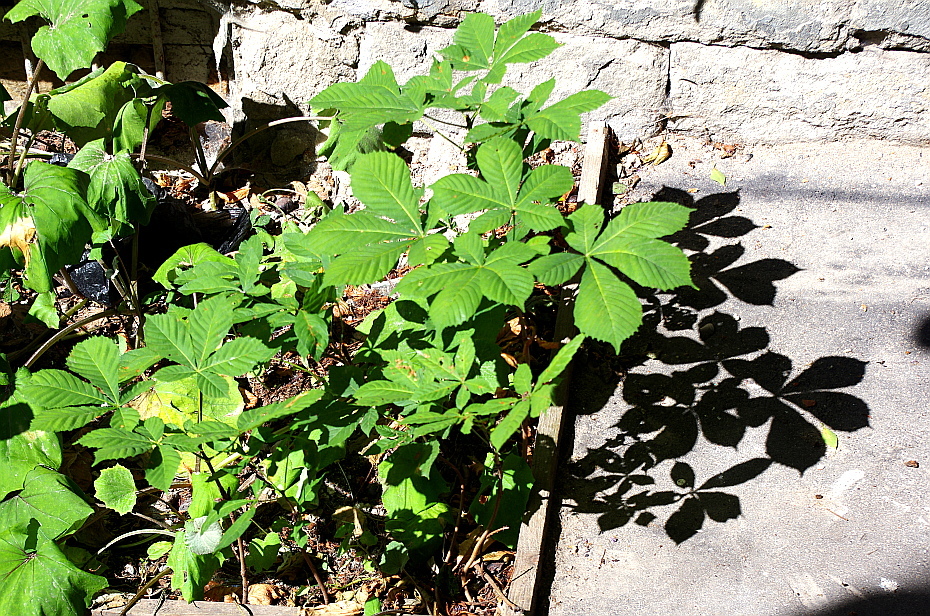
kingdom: Plantae
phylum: Tracheophyta
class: Magnoliopsida
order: Sapindales
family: Sapindaceae
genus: Aesculus
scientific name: Aesculus hippocastanum
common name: Horse-chestnut
